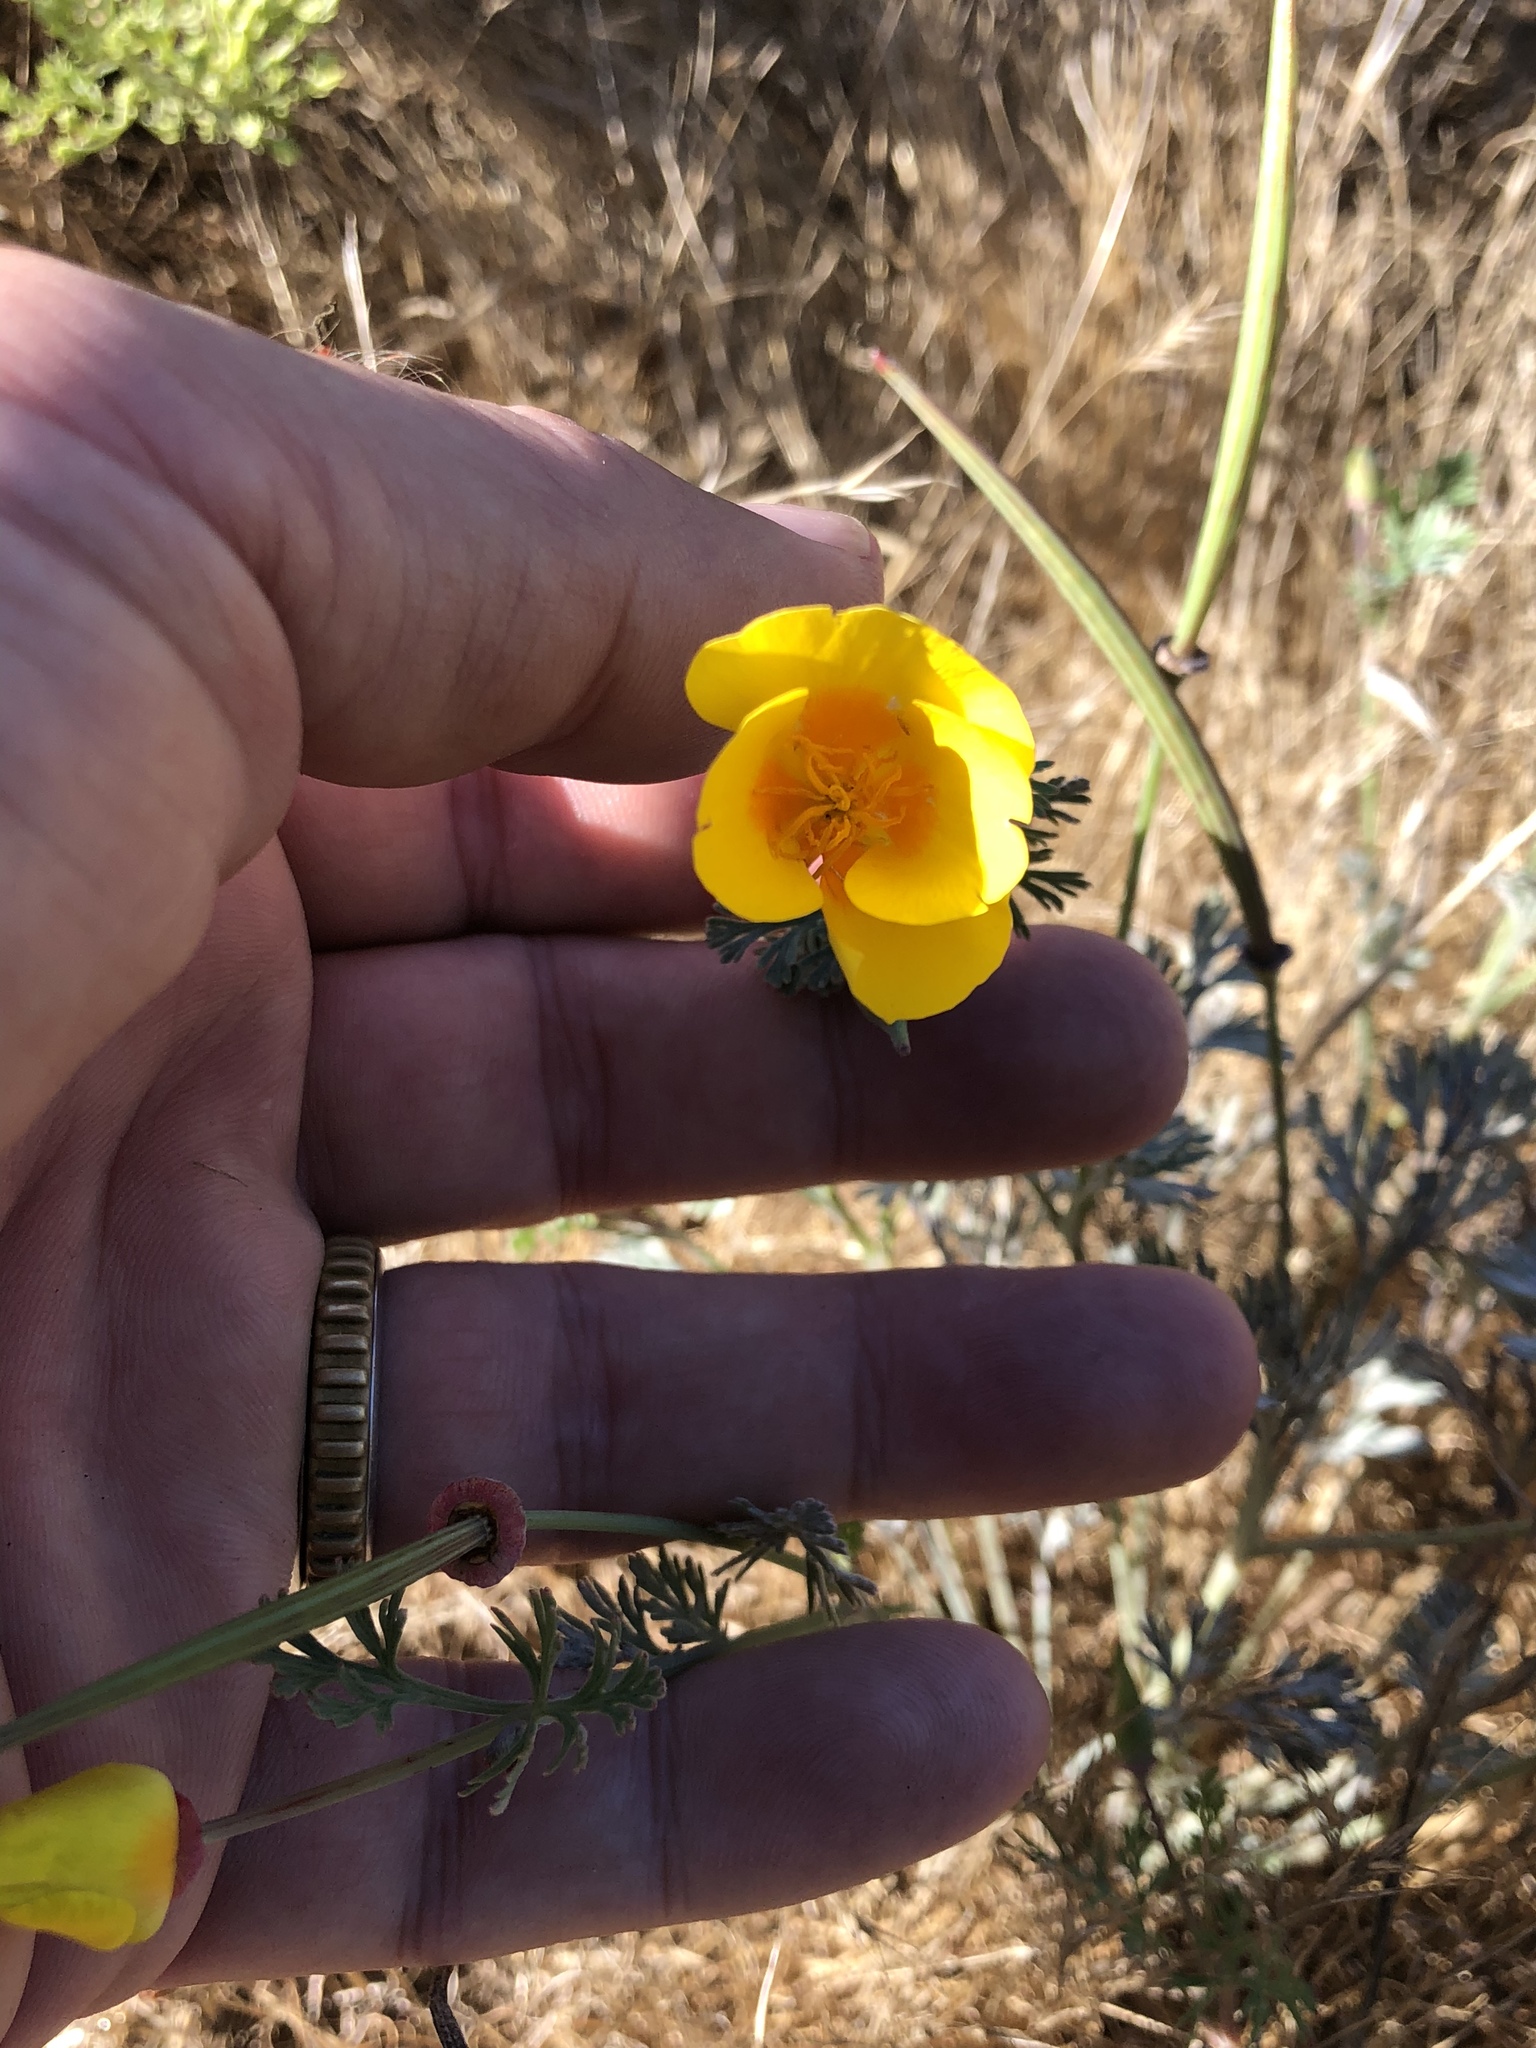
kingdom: Plantae
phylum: Tracheophyta
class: Magnoliopsida
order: Ranunculales
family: Papaveraceae
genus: Eschscholzia
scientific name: Eschscholzia californica
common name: California poppy
